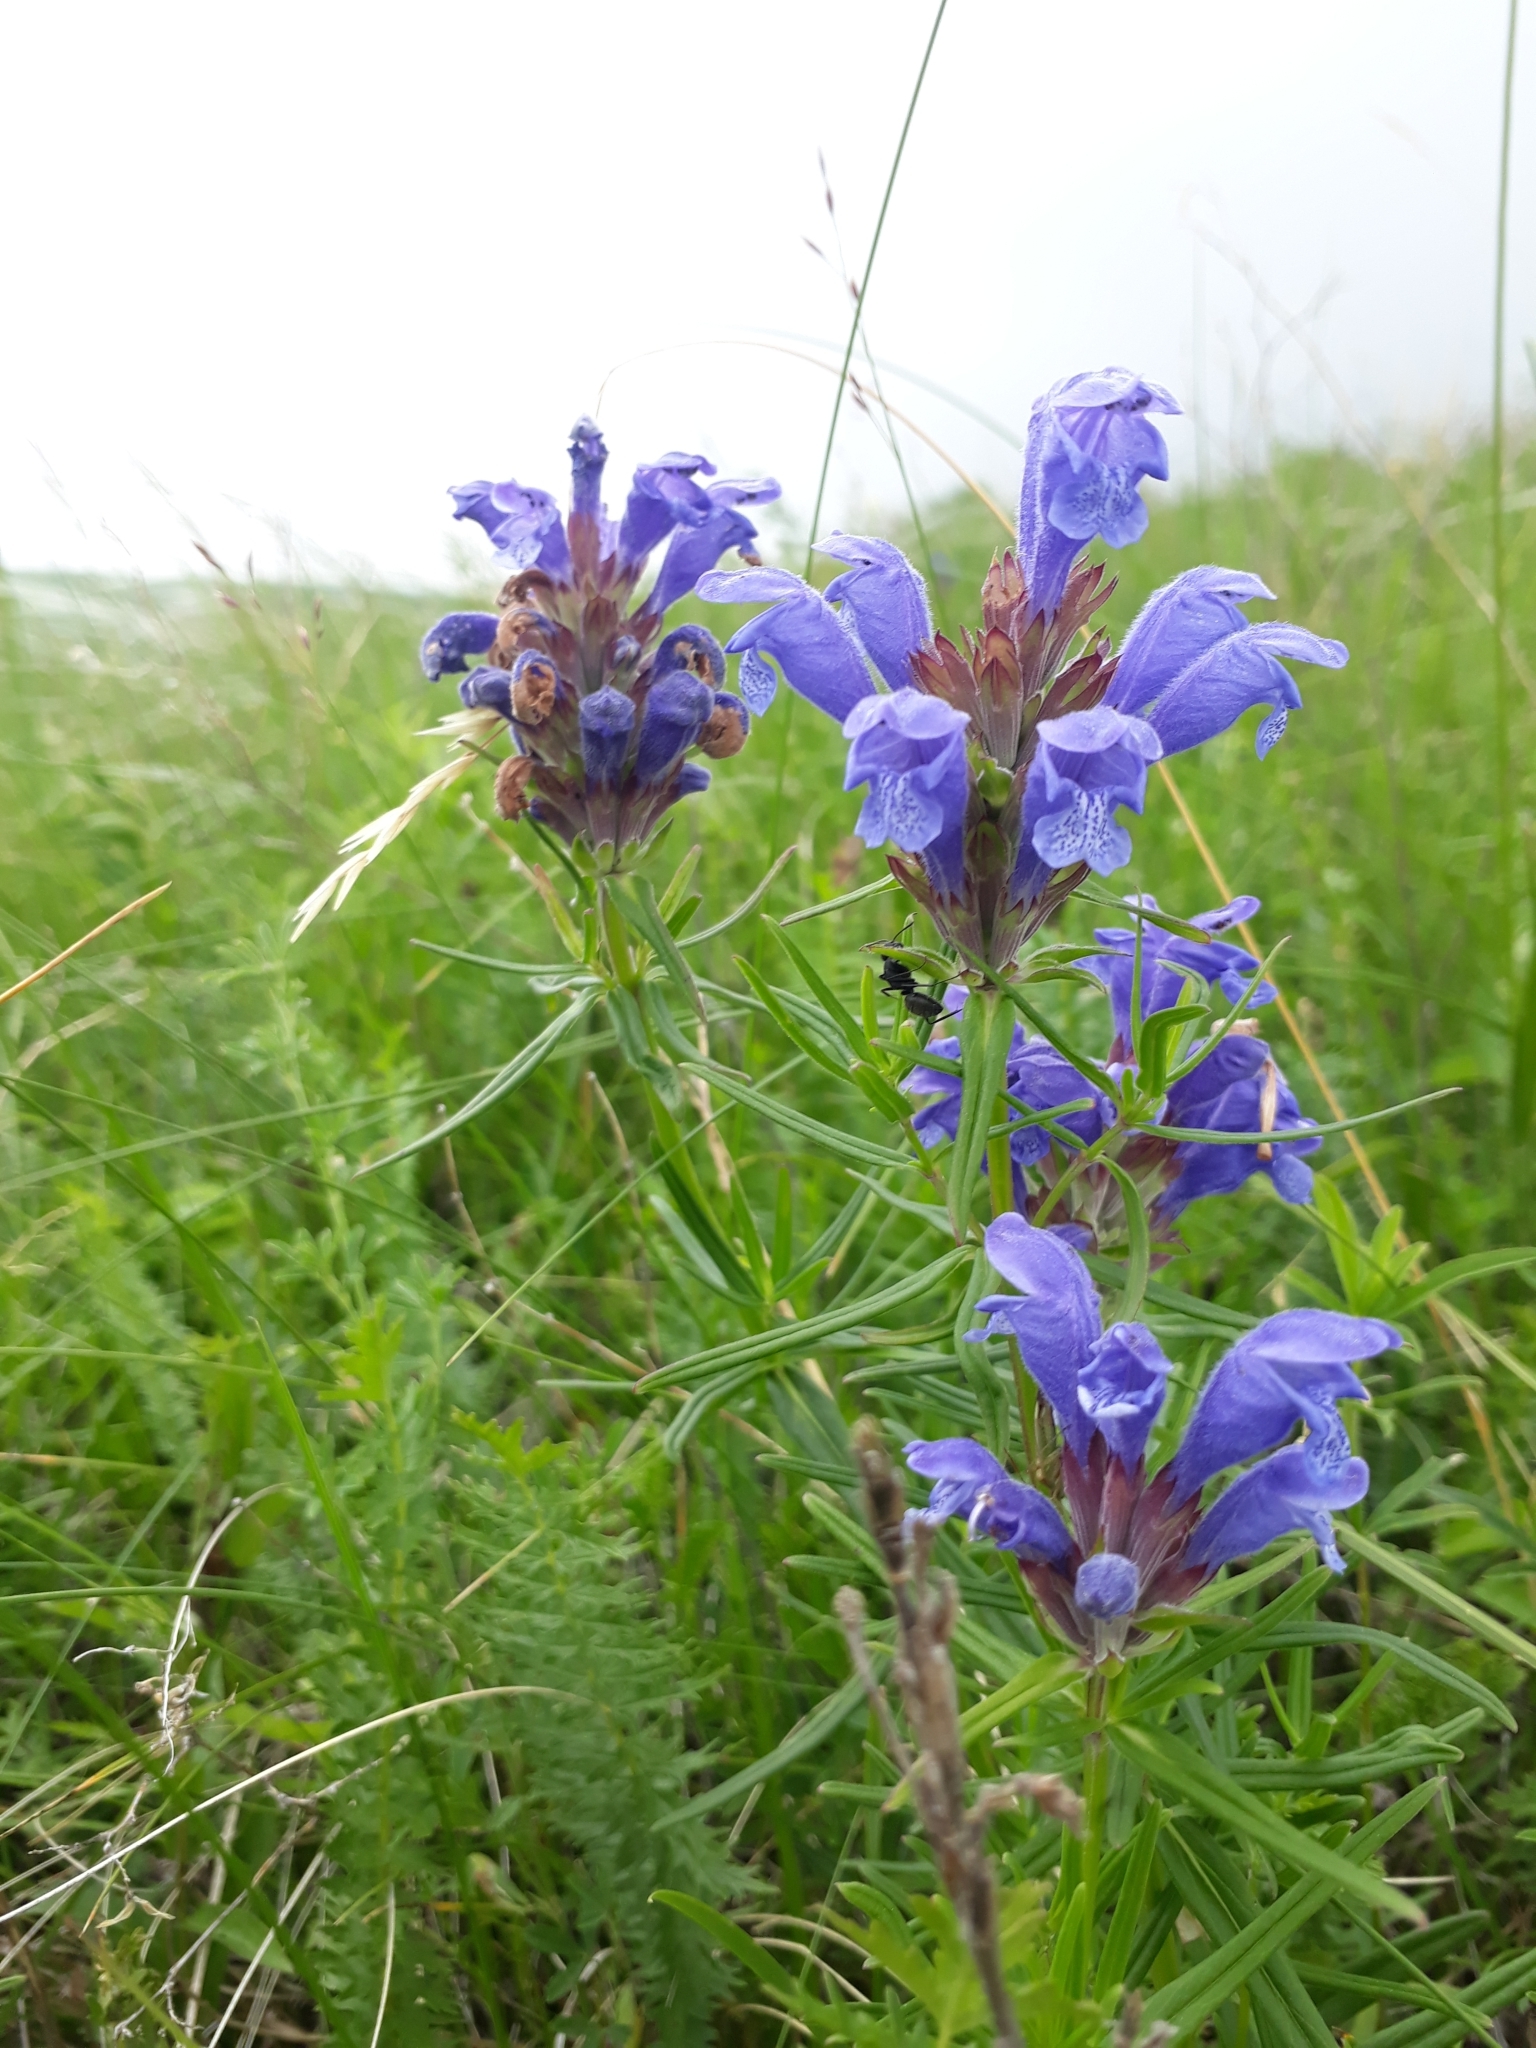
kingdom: Plantae
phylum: Tracheophyta
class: Magnoliopsida
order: Lamiales
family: Lamiaceae
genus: Dracocephalum
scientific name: Dracocephalum ruyschiana
